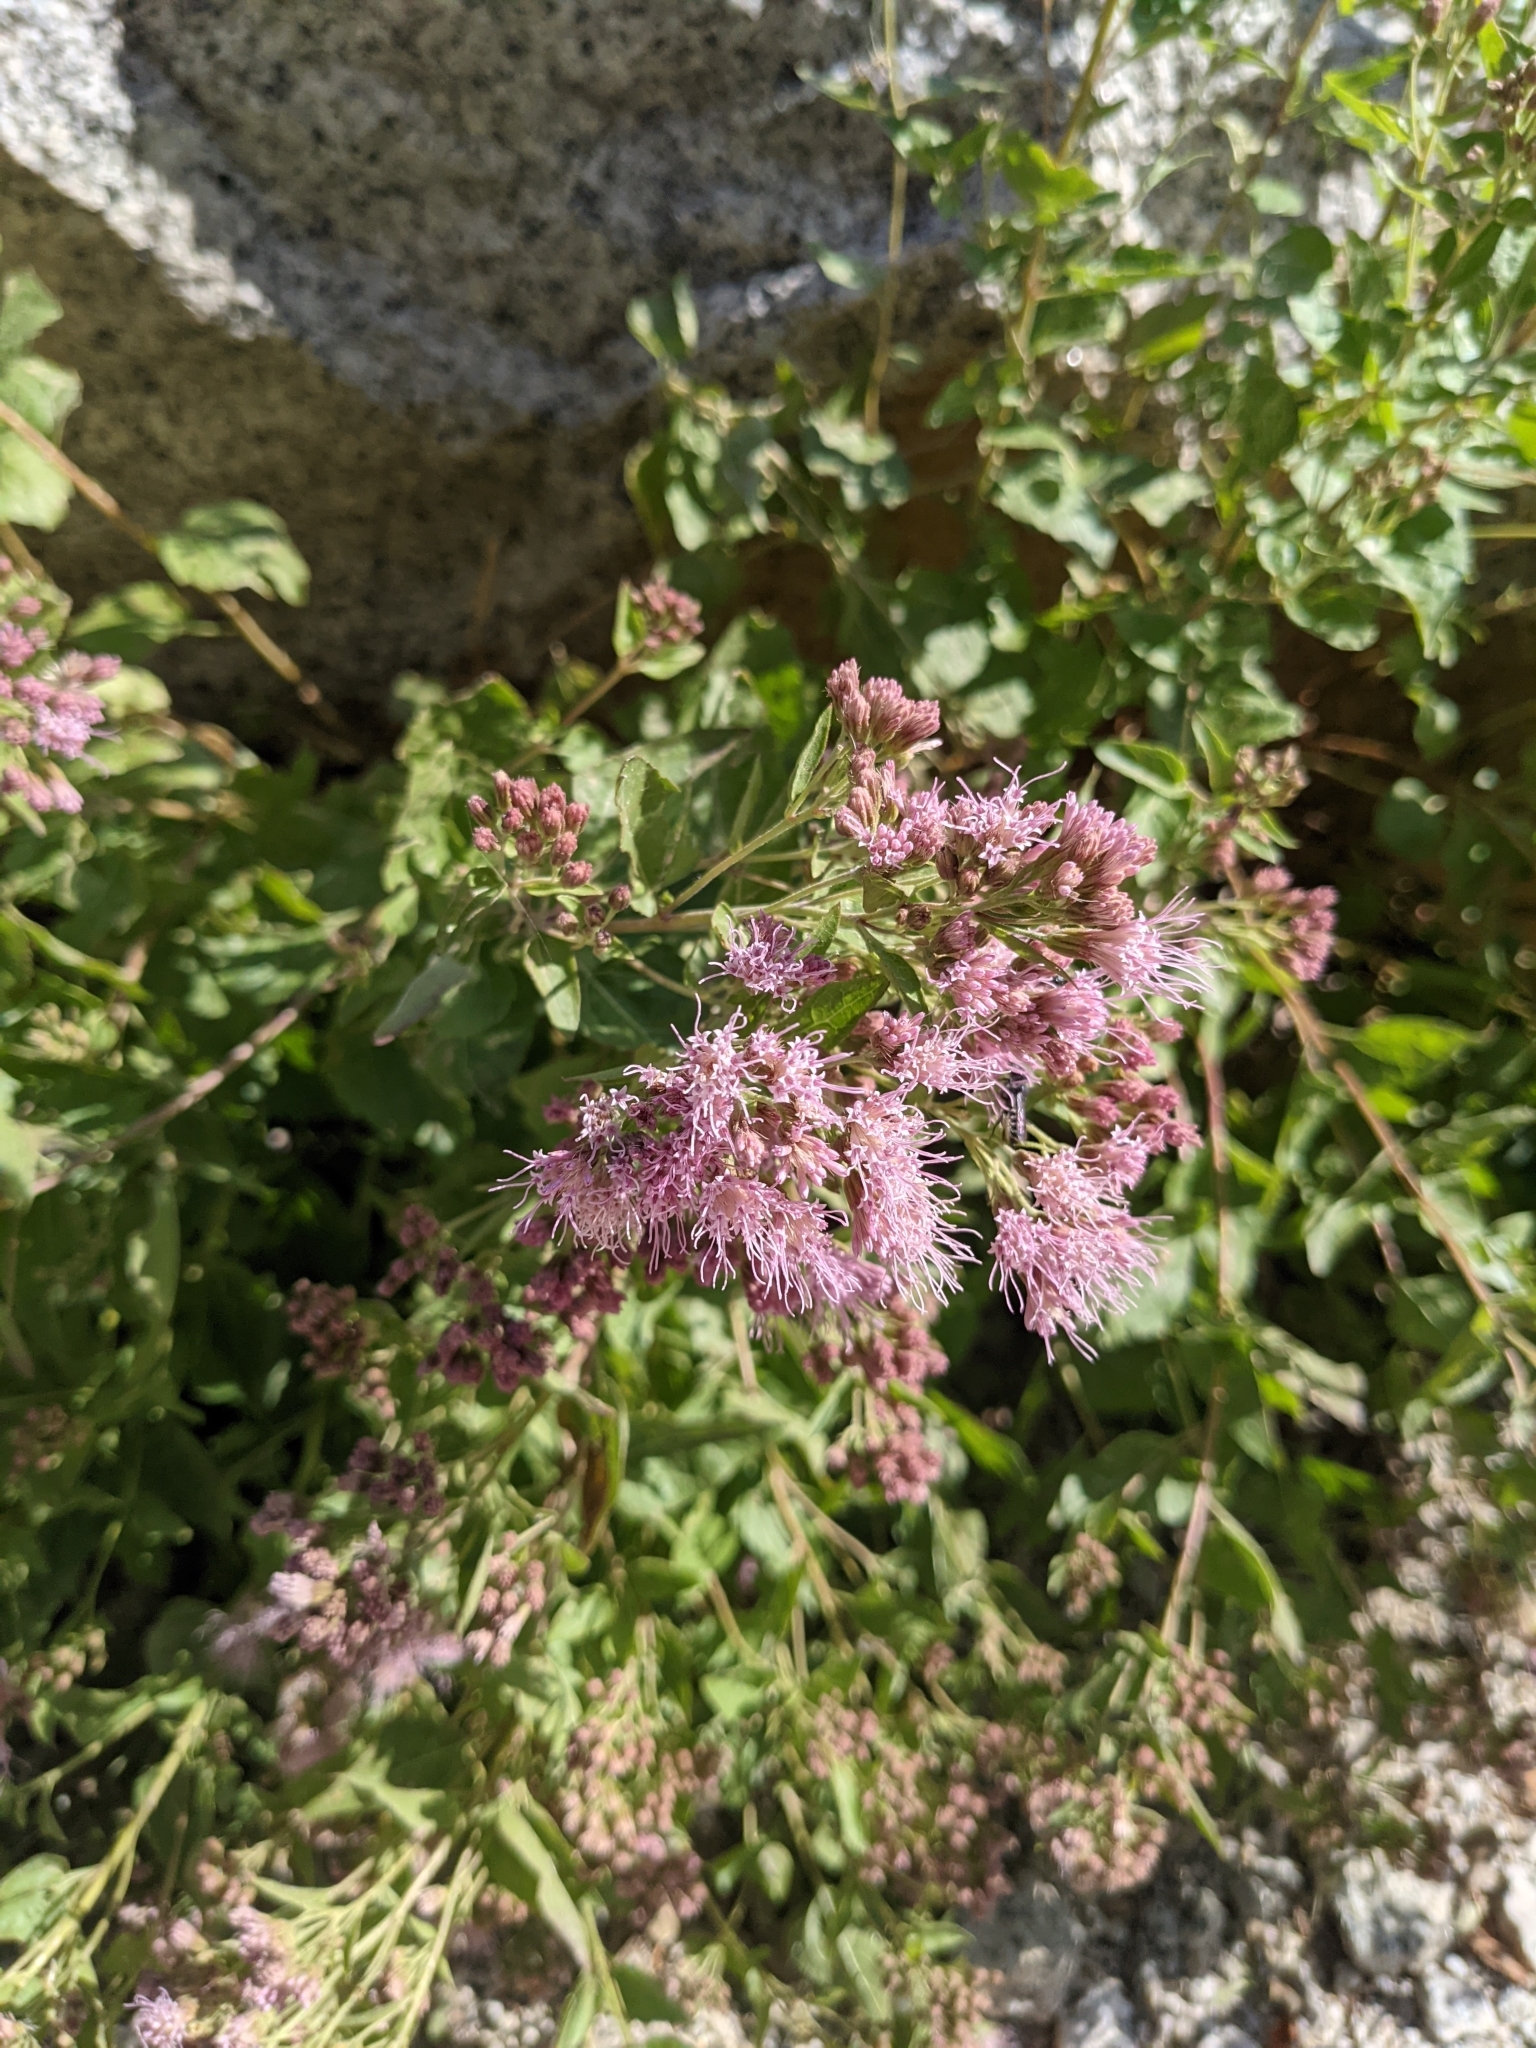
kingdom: Plantae
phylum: Tracheophyta
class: Magnoliopsida
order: Asterales
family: Asteraceae
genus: Ageratina
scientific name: Ageratina occidentalis
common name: Western snakeroot
